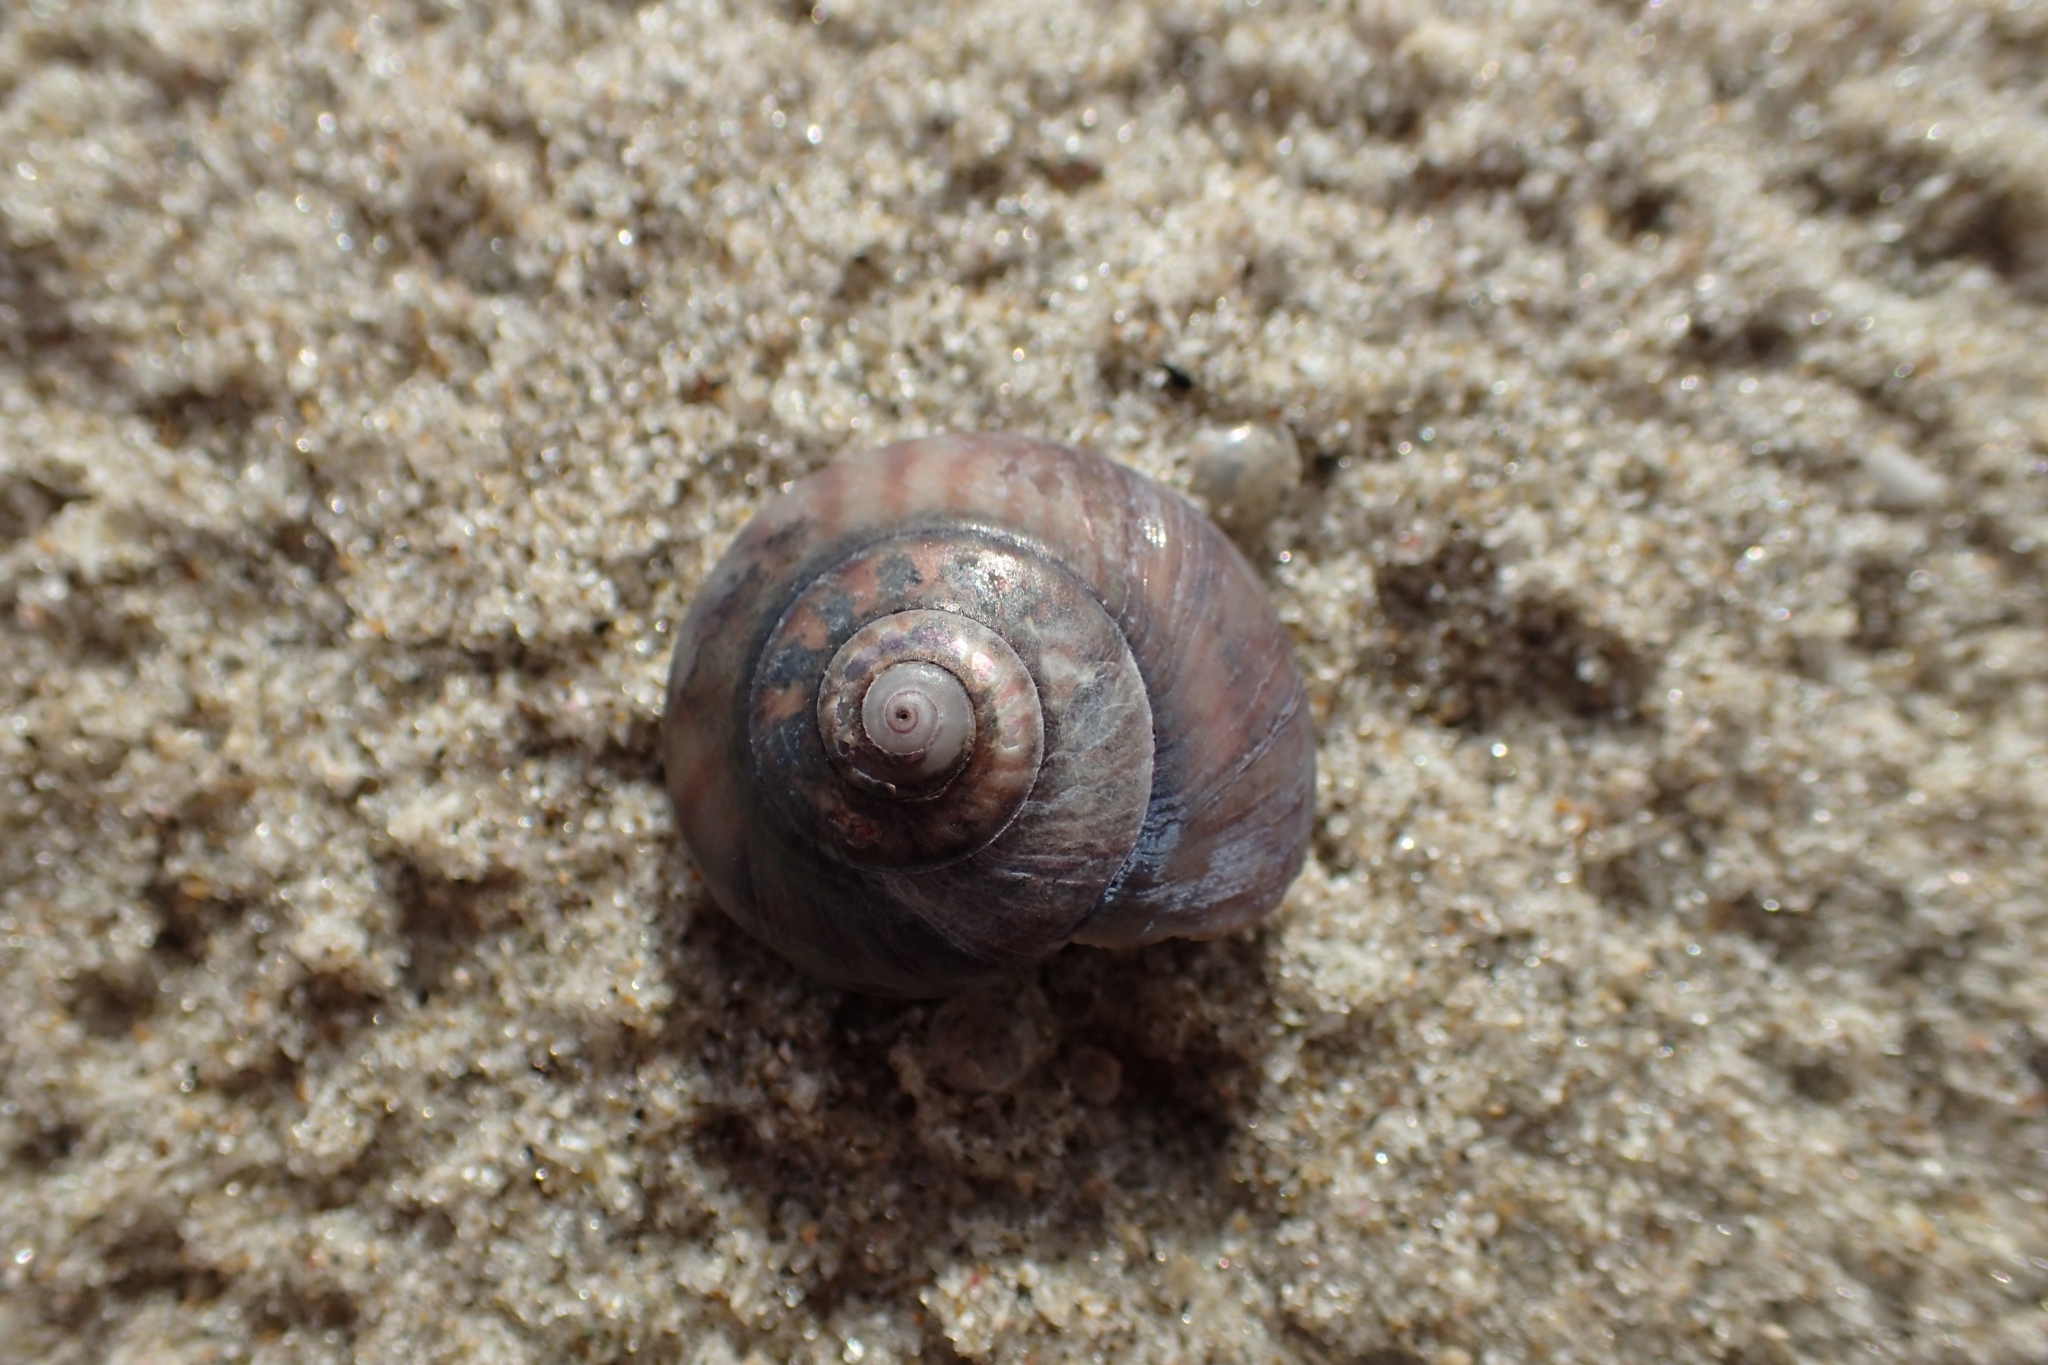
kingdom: Animalia
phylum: Mollusca
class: Gastropoda
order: Trochida
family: Trochidae
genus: Zethalia
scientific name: Zethalia zelandica
